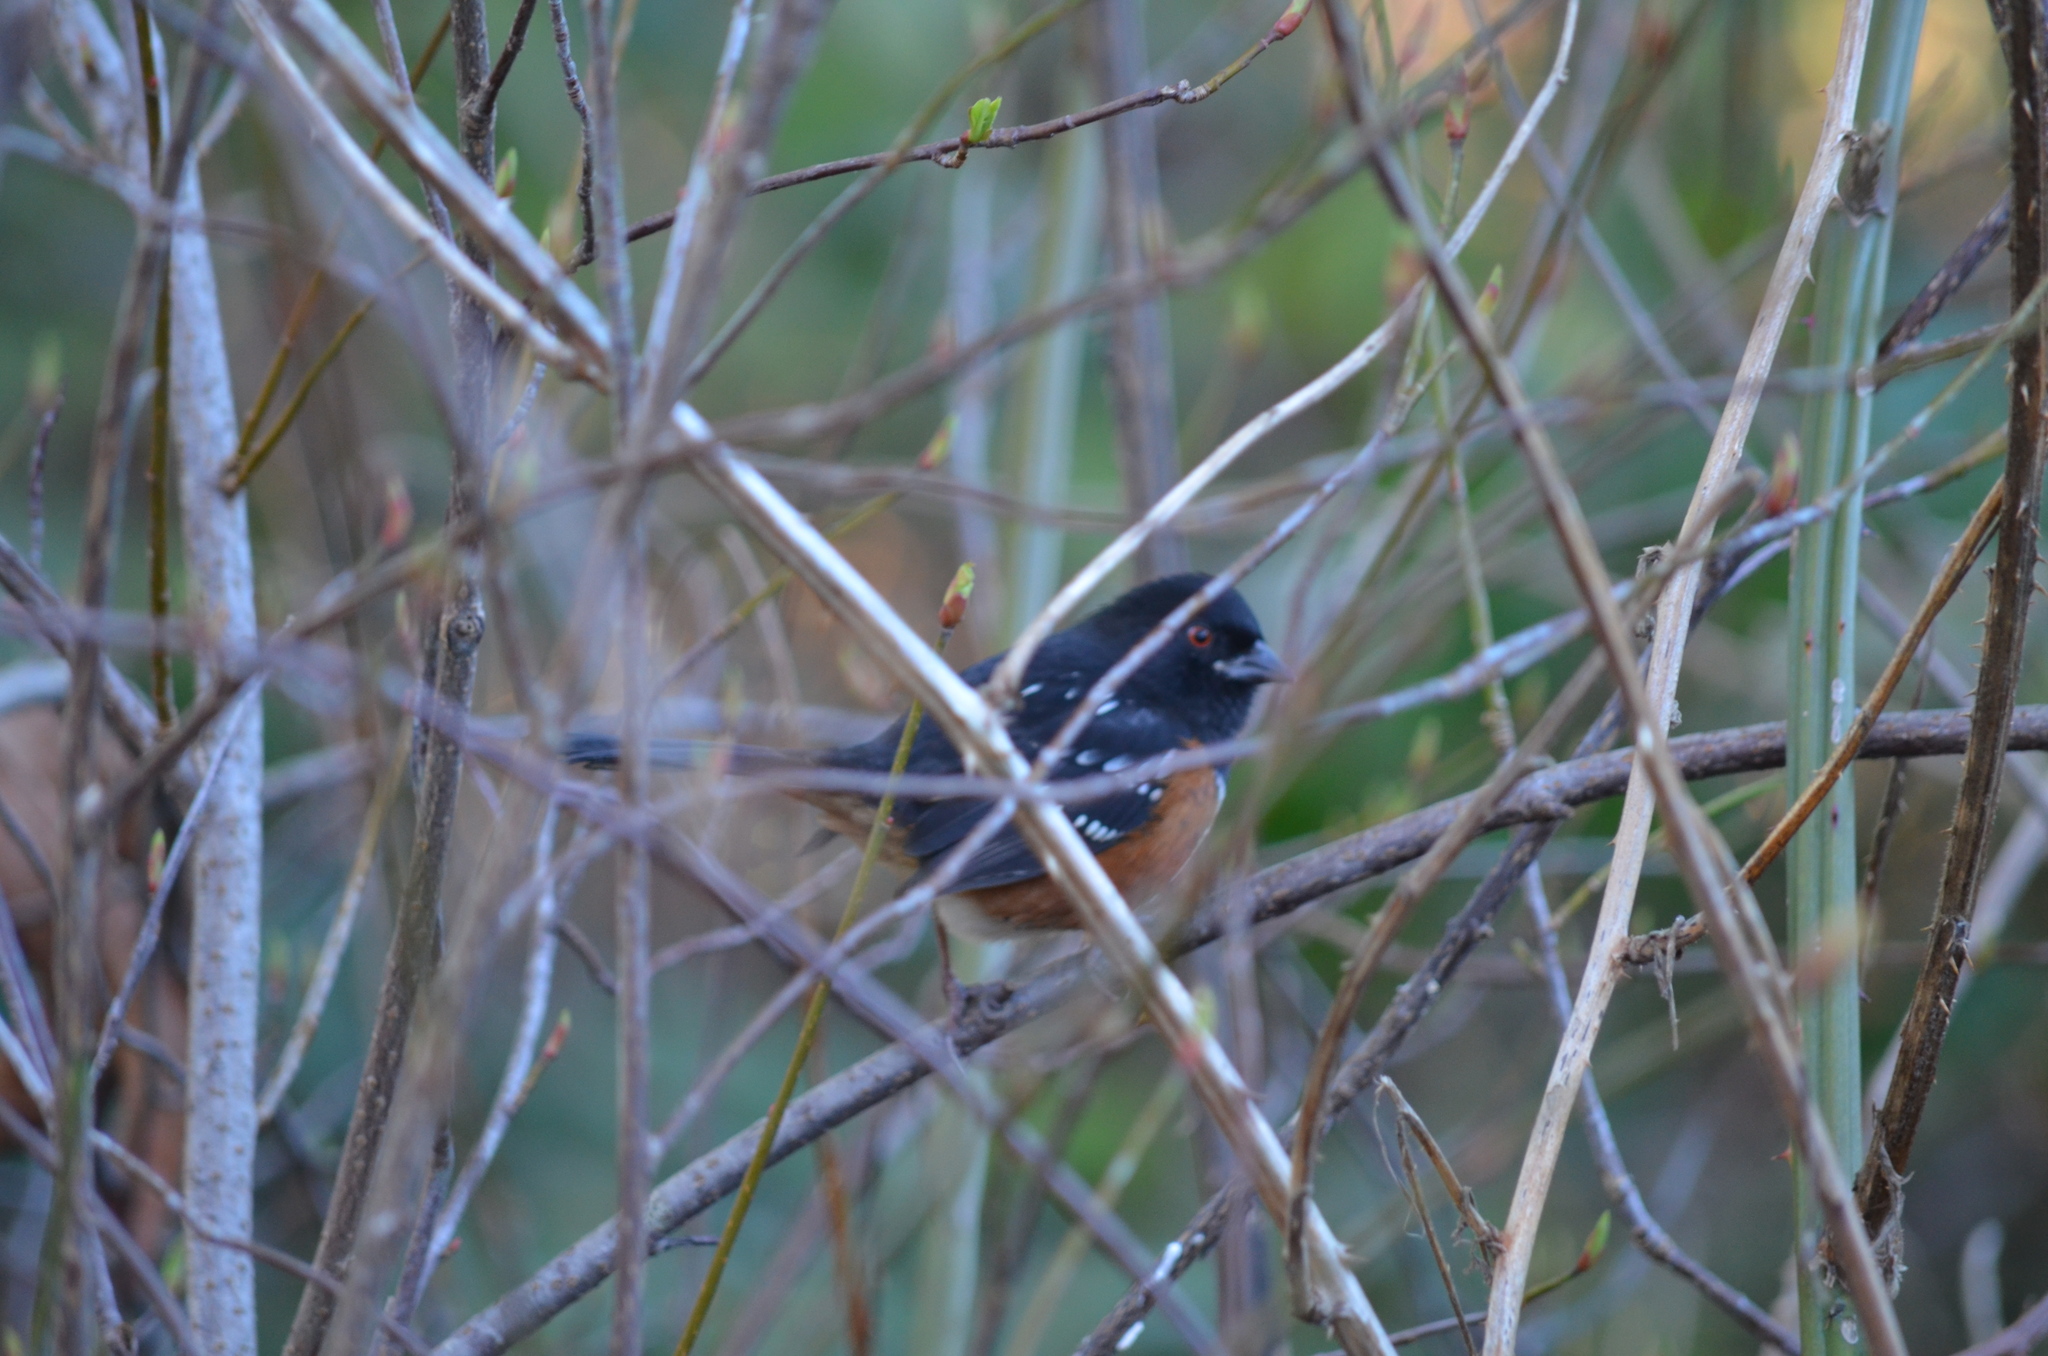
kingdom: Animalia
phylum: Chordata
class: Aves
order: Passeriformes
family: Passerellidae
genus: Pipilo
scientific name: Pipilo maculatus
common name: Spotted towhee
